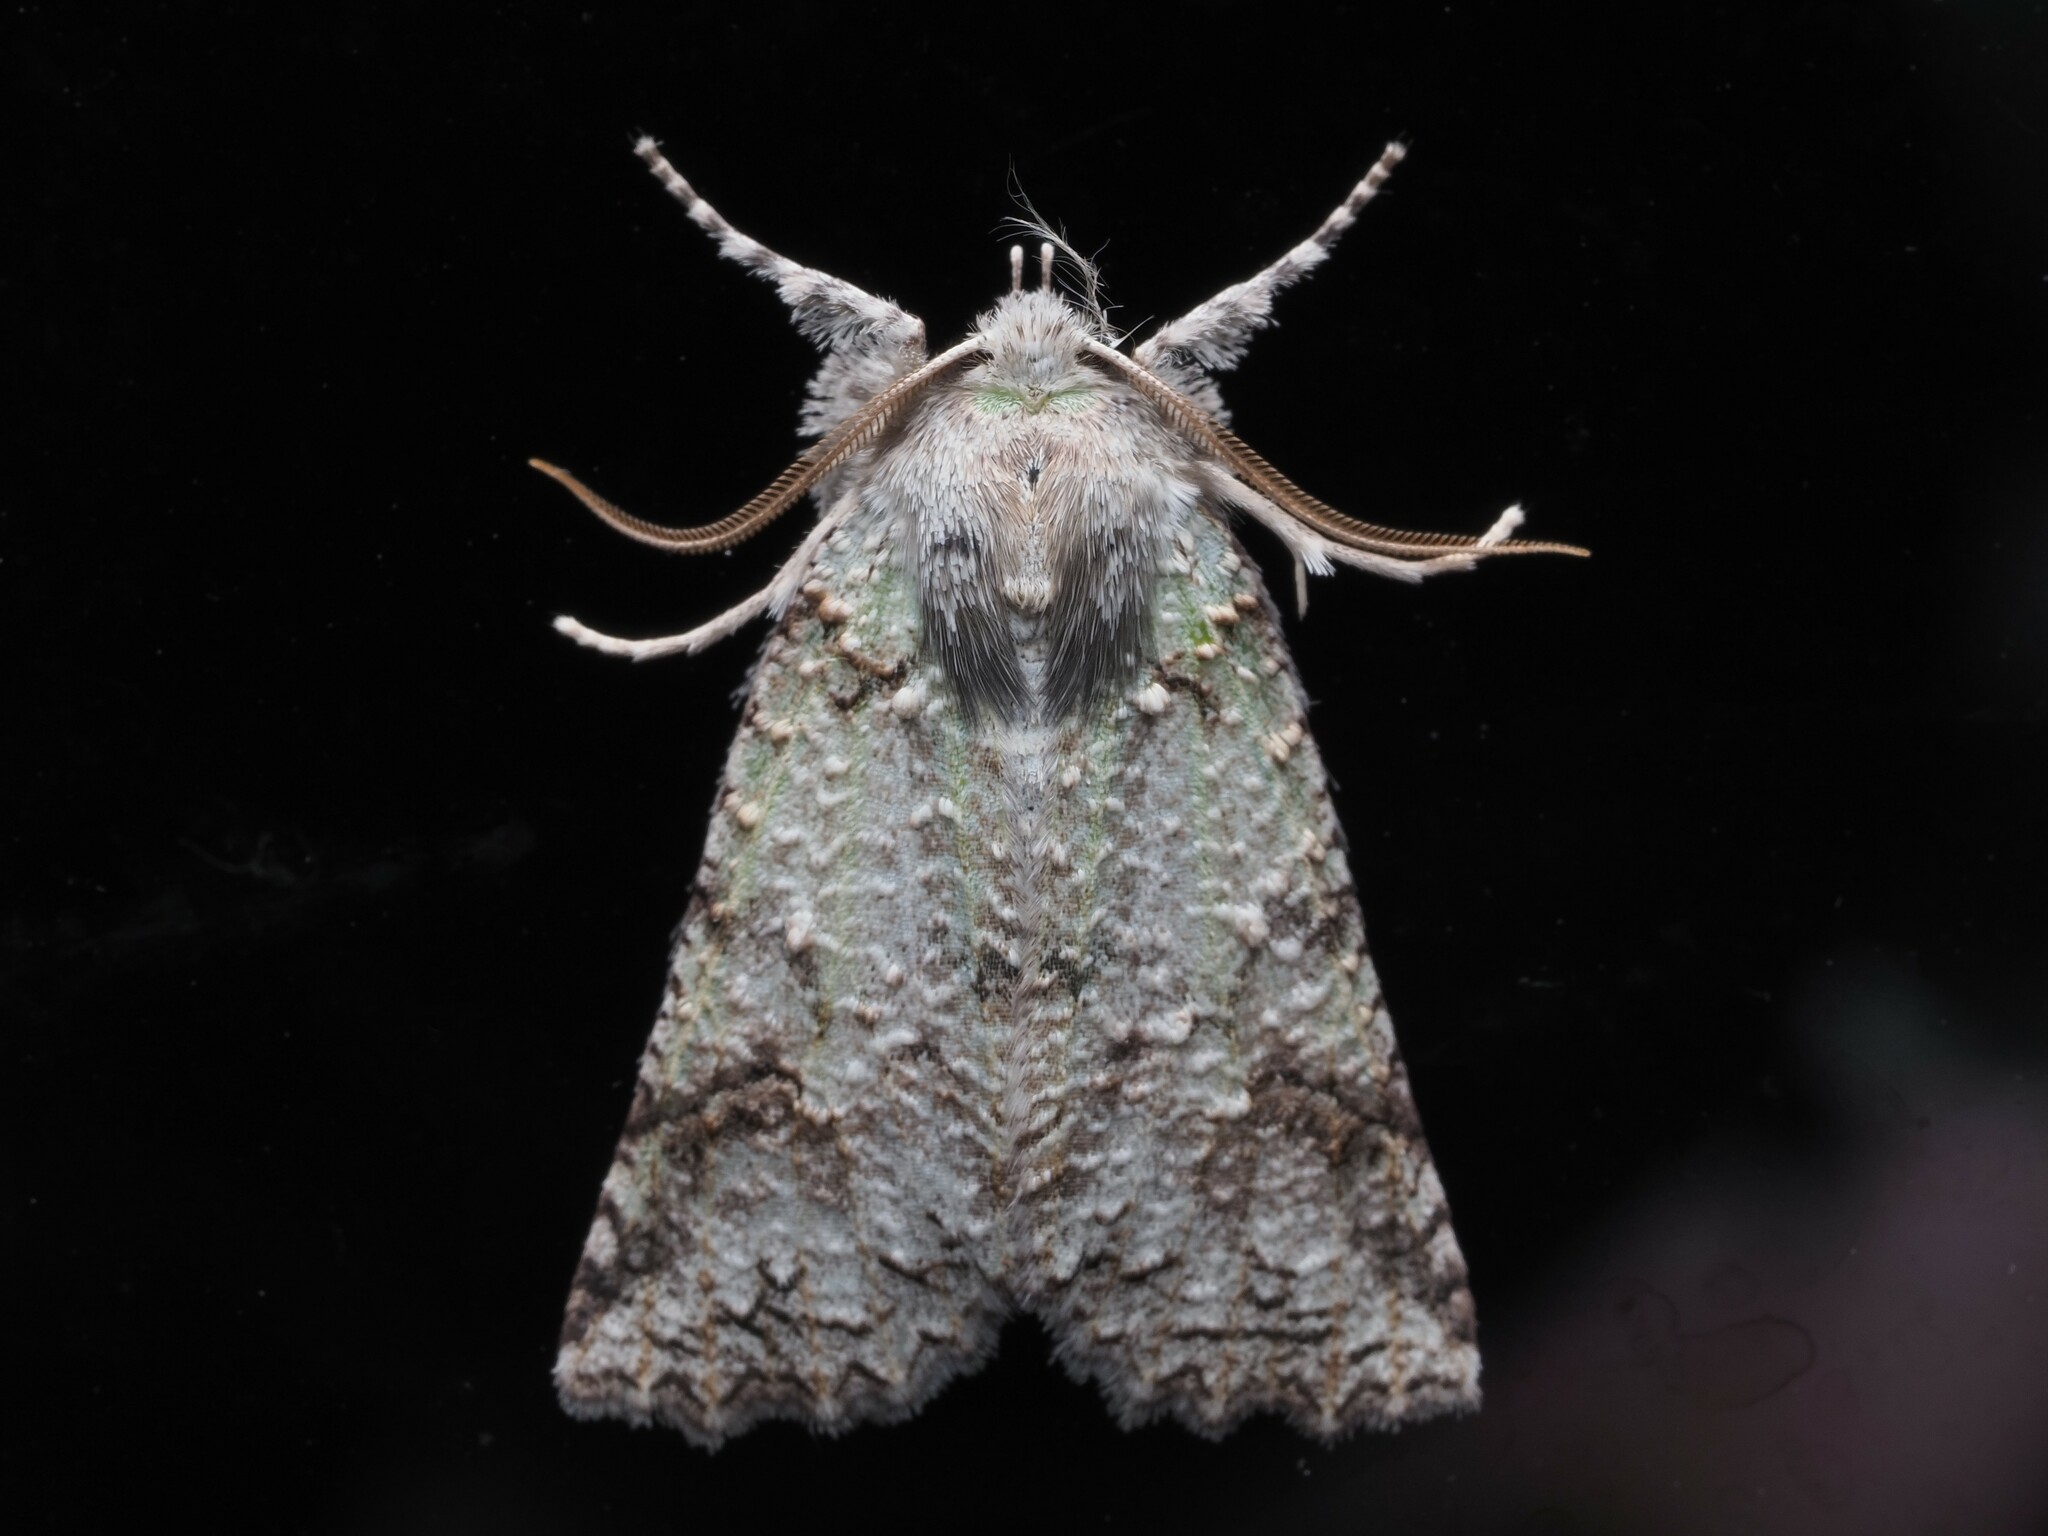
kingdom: Animalia
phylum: Arthropoda
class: Insecta
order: Lepidoptera
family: Geometridae
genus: Declana
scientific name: Declana floccosa
